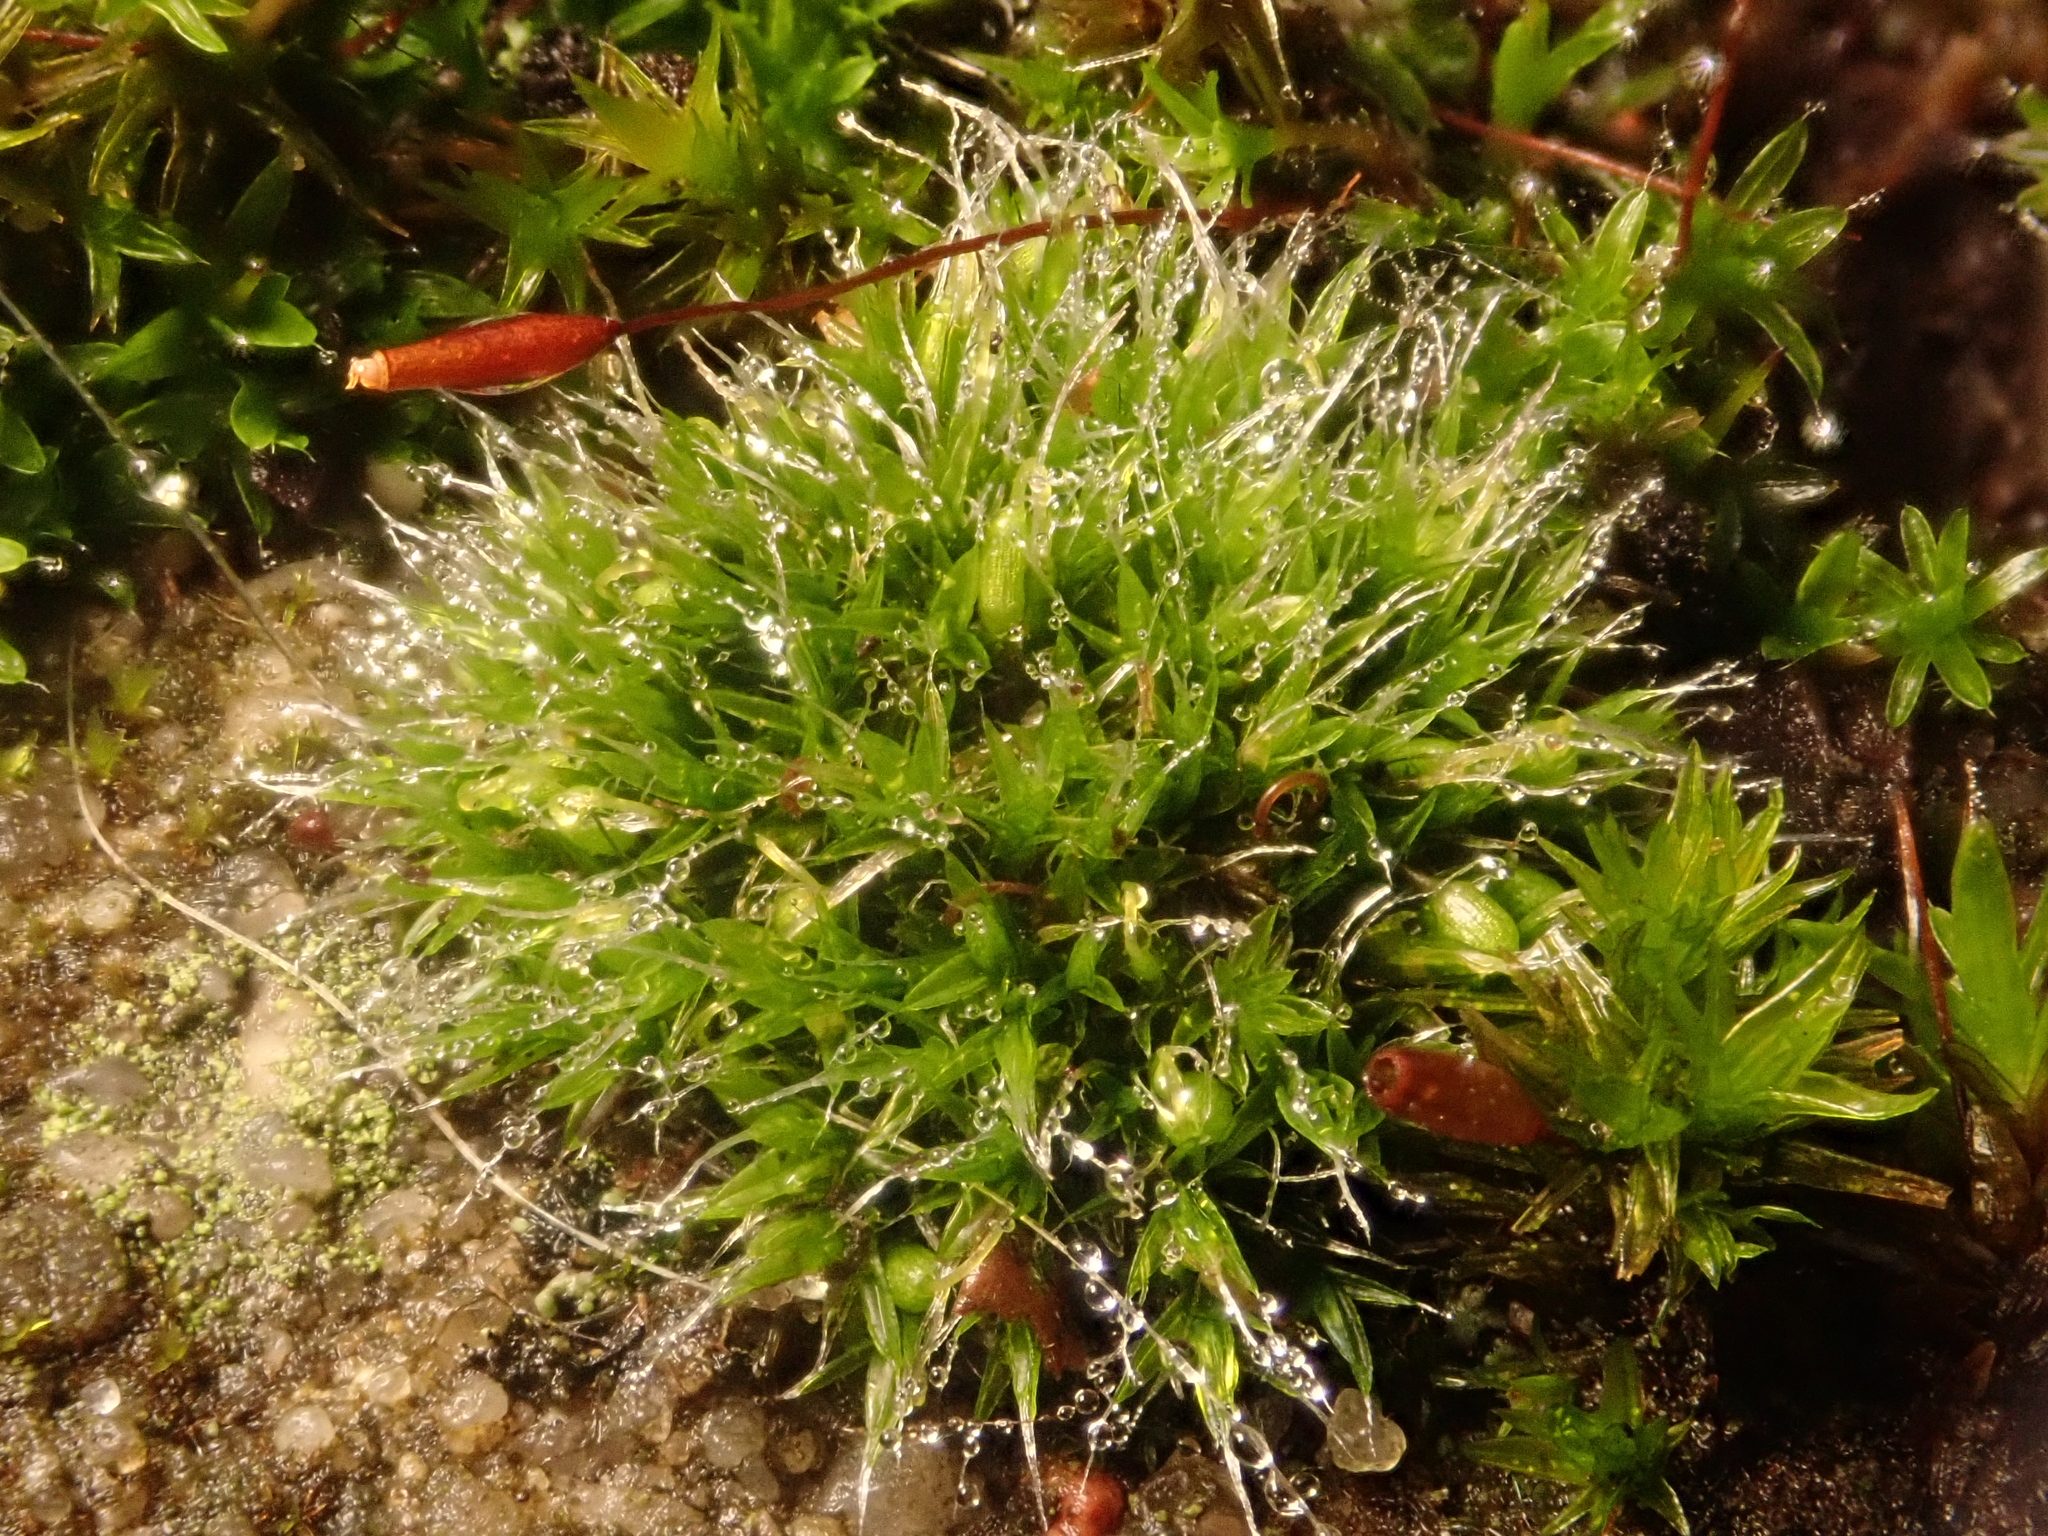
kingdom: Plantae
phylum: Bryophyta
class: Bryopsida
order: Grimmiales
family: Grimmiaceae
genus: Grimmia
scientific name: Grimmia pulvinata
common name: Grey-cushioned grimmia
